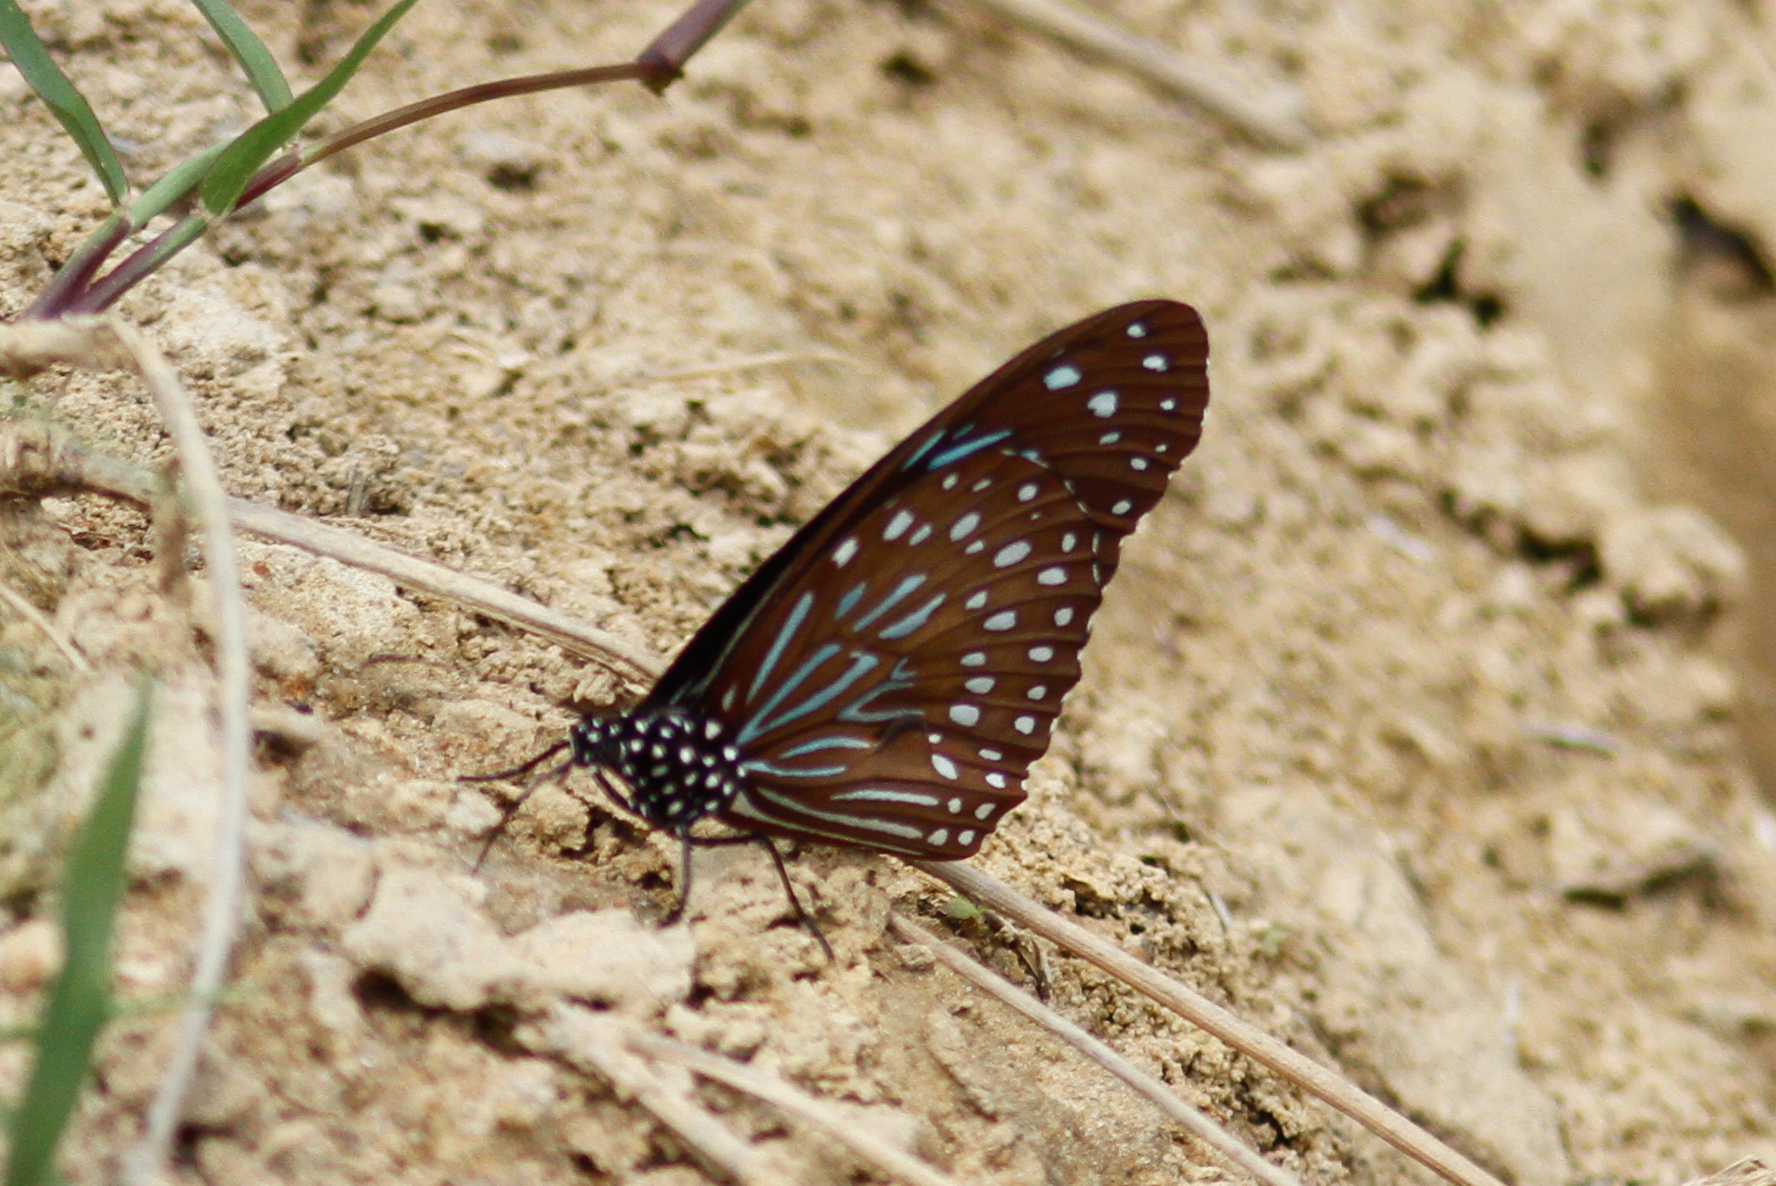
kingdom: Animalia
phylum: Arthropoda
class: Insecta
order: Lepidoptera
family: Nymphalidae
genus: Tirumala
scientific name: Tirumala septentrionis
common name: Dark blue tiger butterfly
